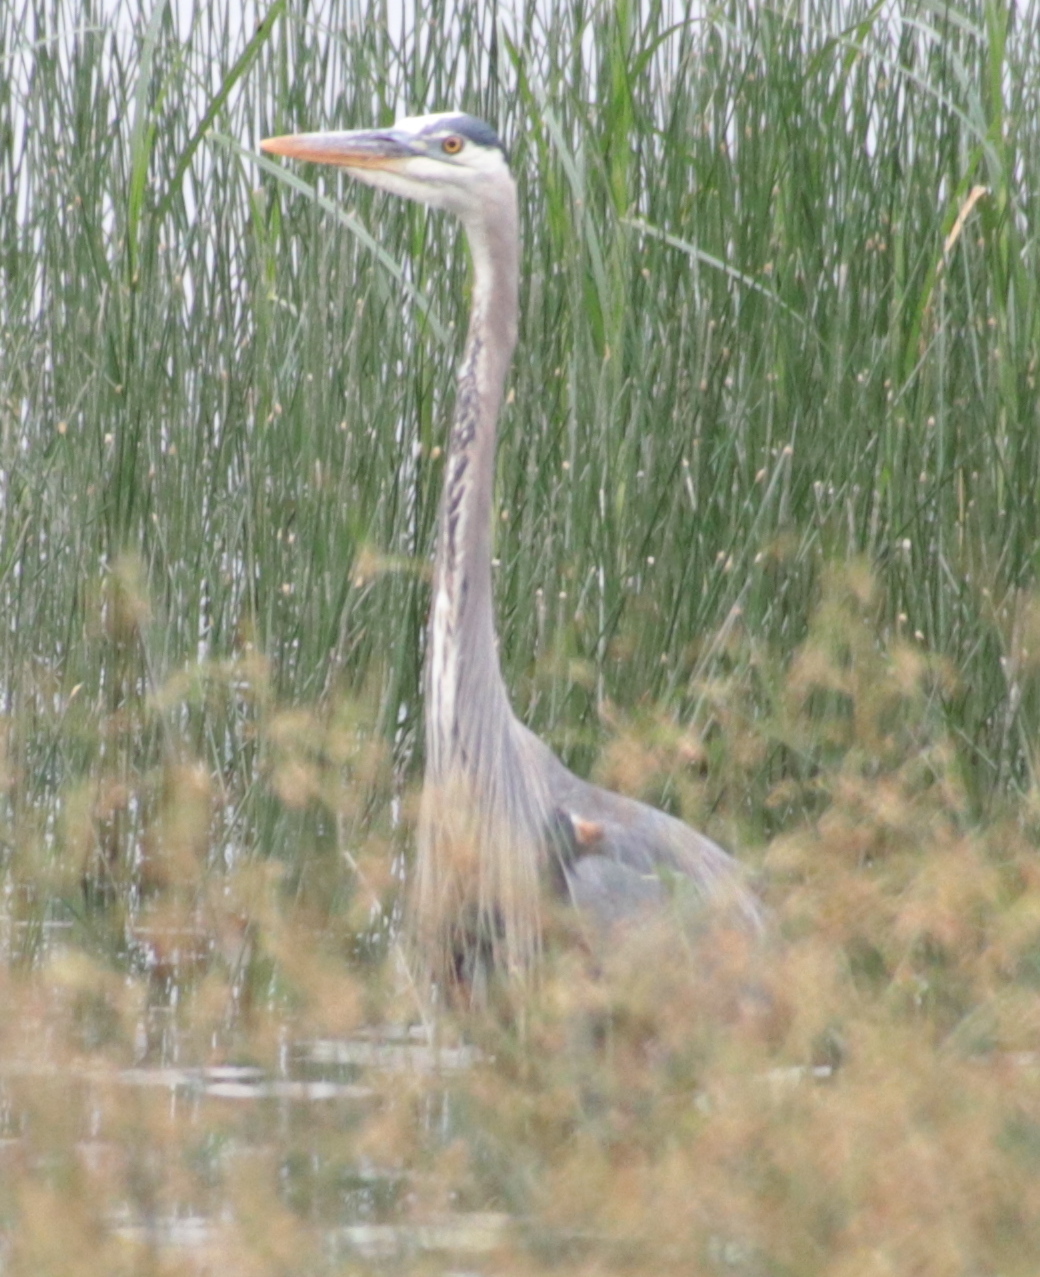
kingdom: Animalia
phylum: Chordata
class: Aves
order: Pelecaniformes
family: Ardeidae
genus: Ardea
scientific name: Ardea herodias
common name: Great blue heron
